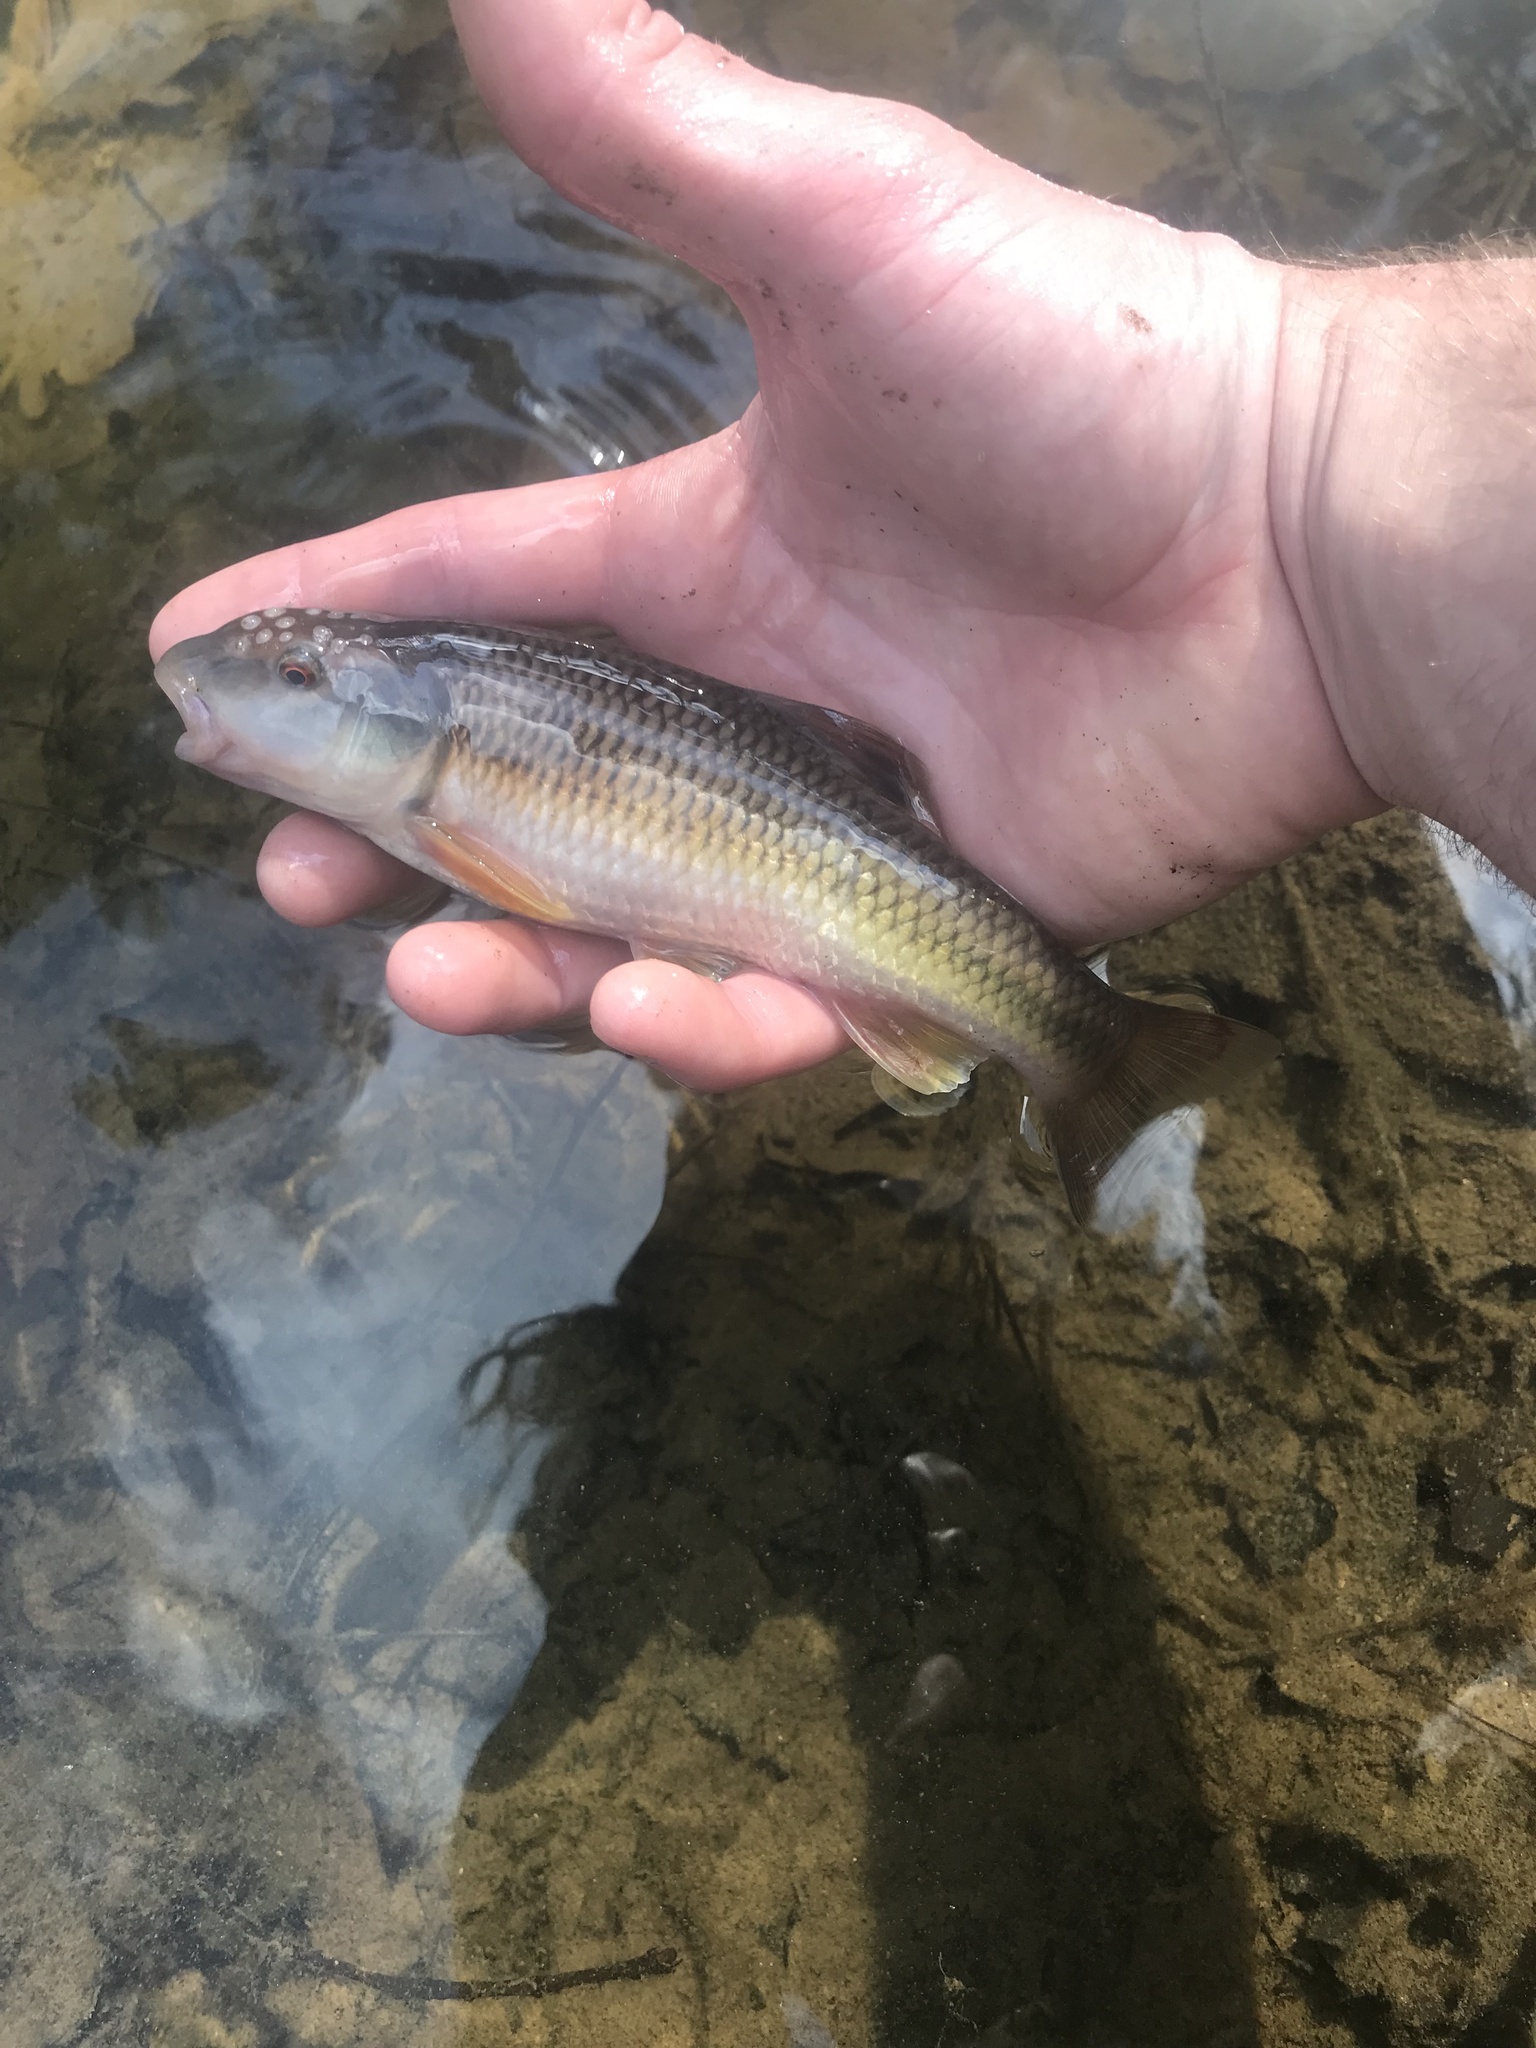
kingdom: Animalia
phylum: Chordata
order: Cypriniformes
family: Cyprinidae
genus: Nocomis
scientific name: Nocomis leptocephalus
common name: Bluehead chub
